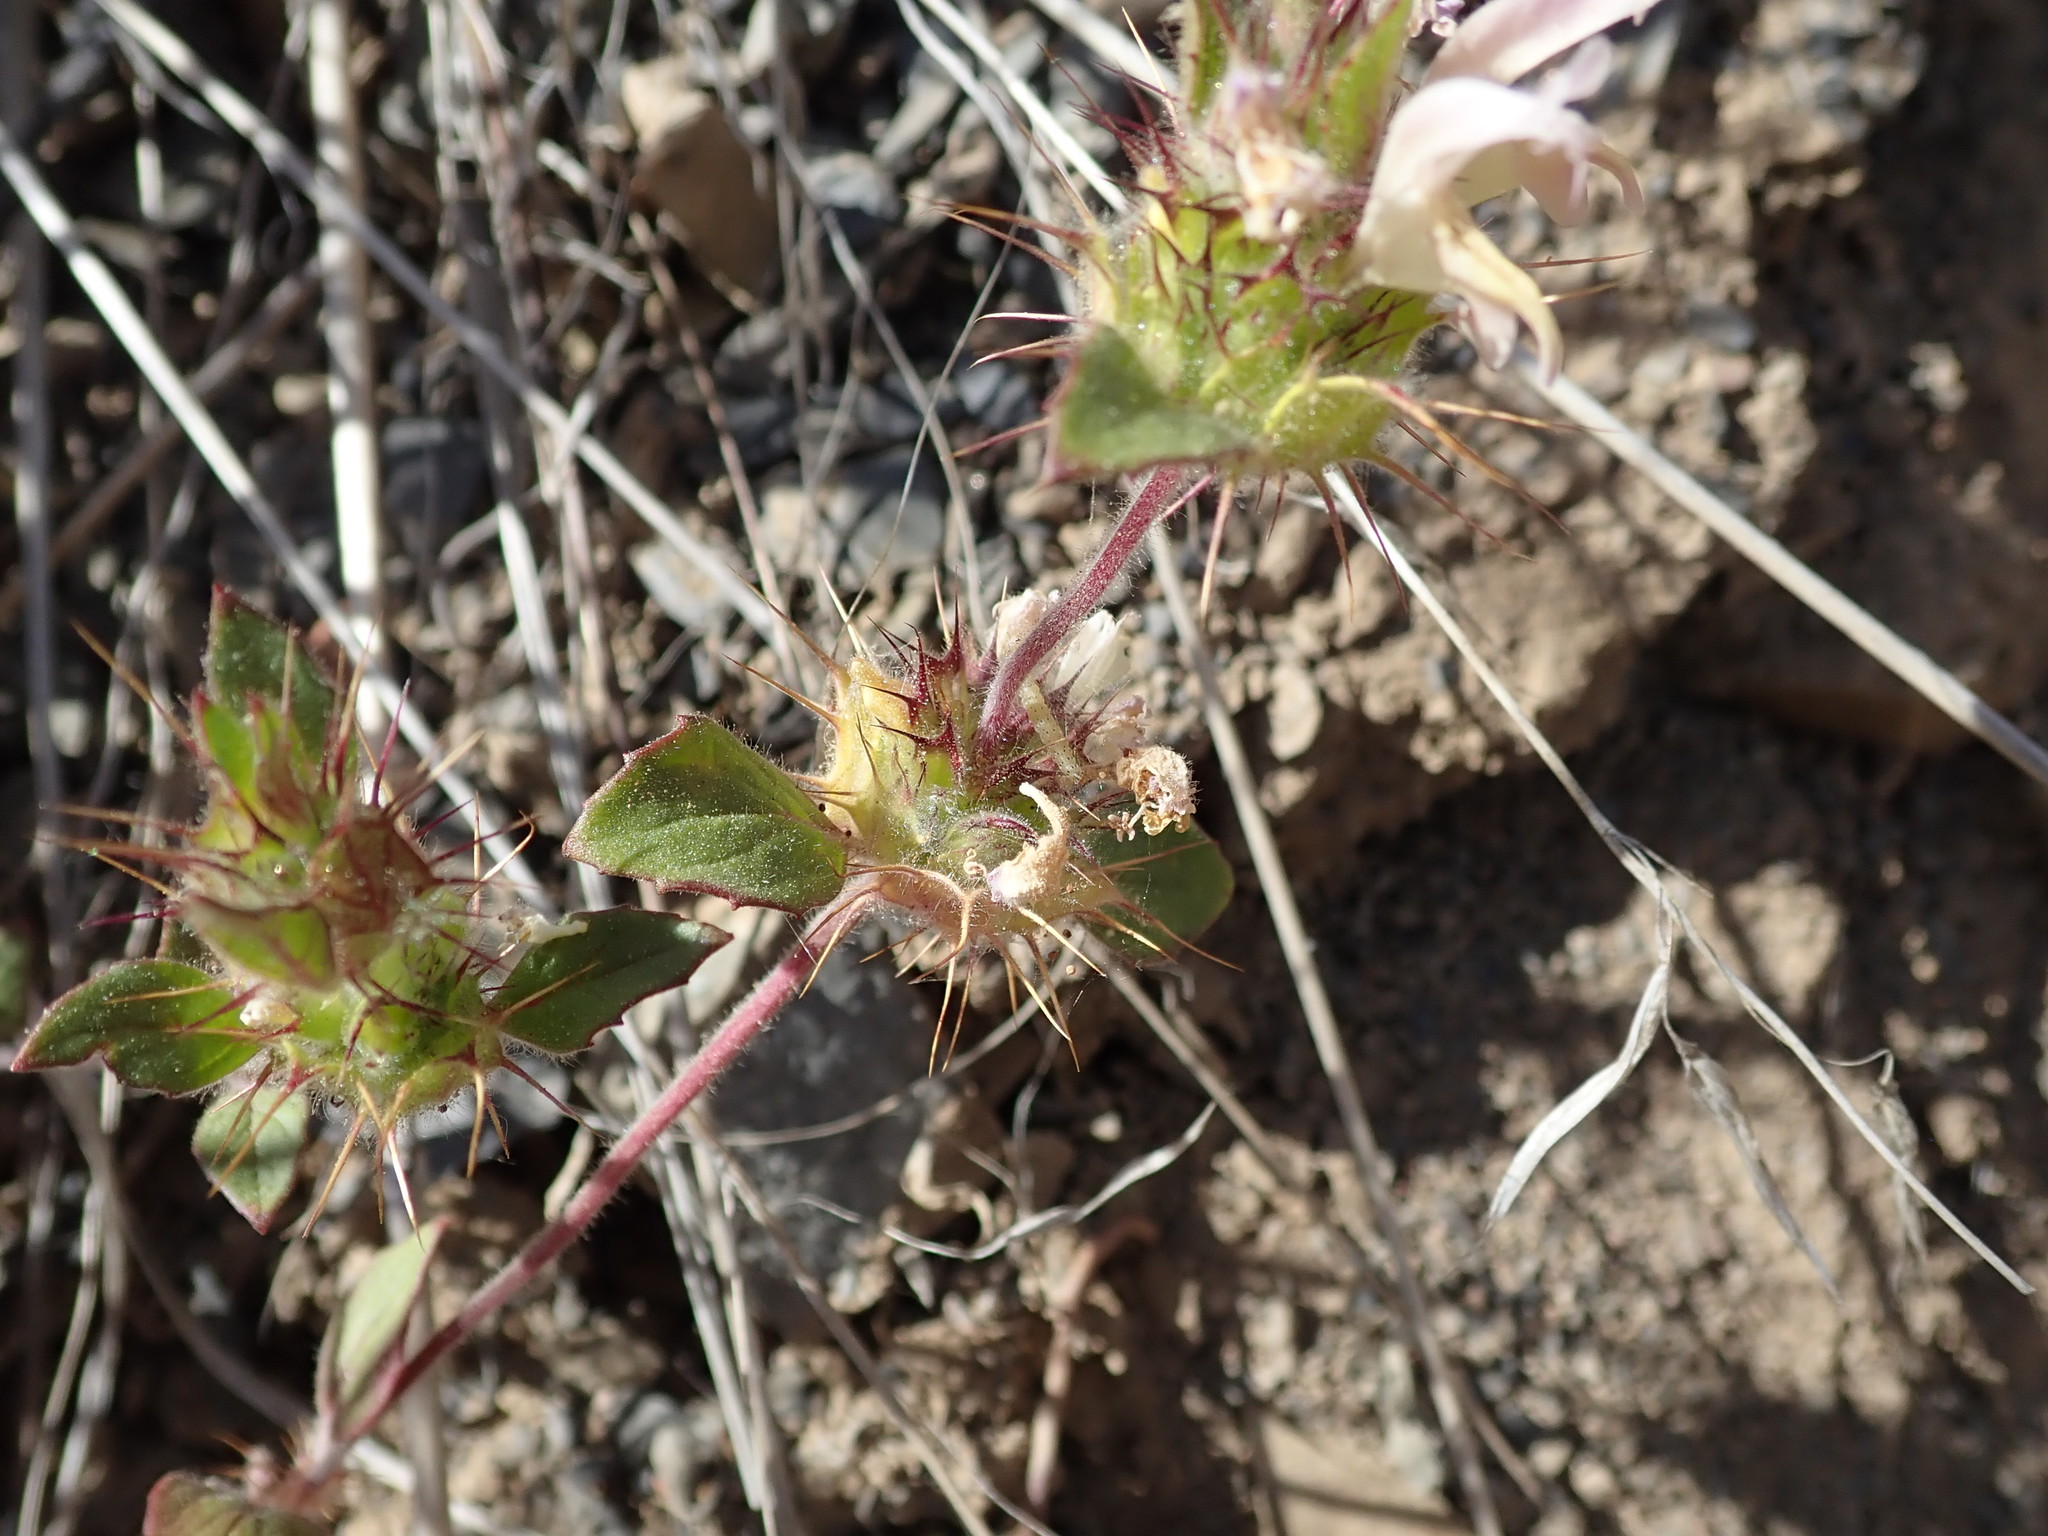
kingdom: Plantae
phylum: Tracheophyta
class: Magnoliopsida
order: Lamiales
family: Lamiaceae
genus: Acanthomintha
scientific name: Acanthomintha lanceolata
